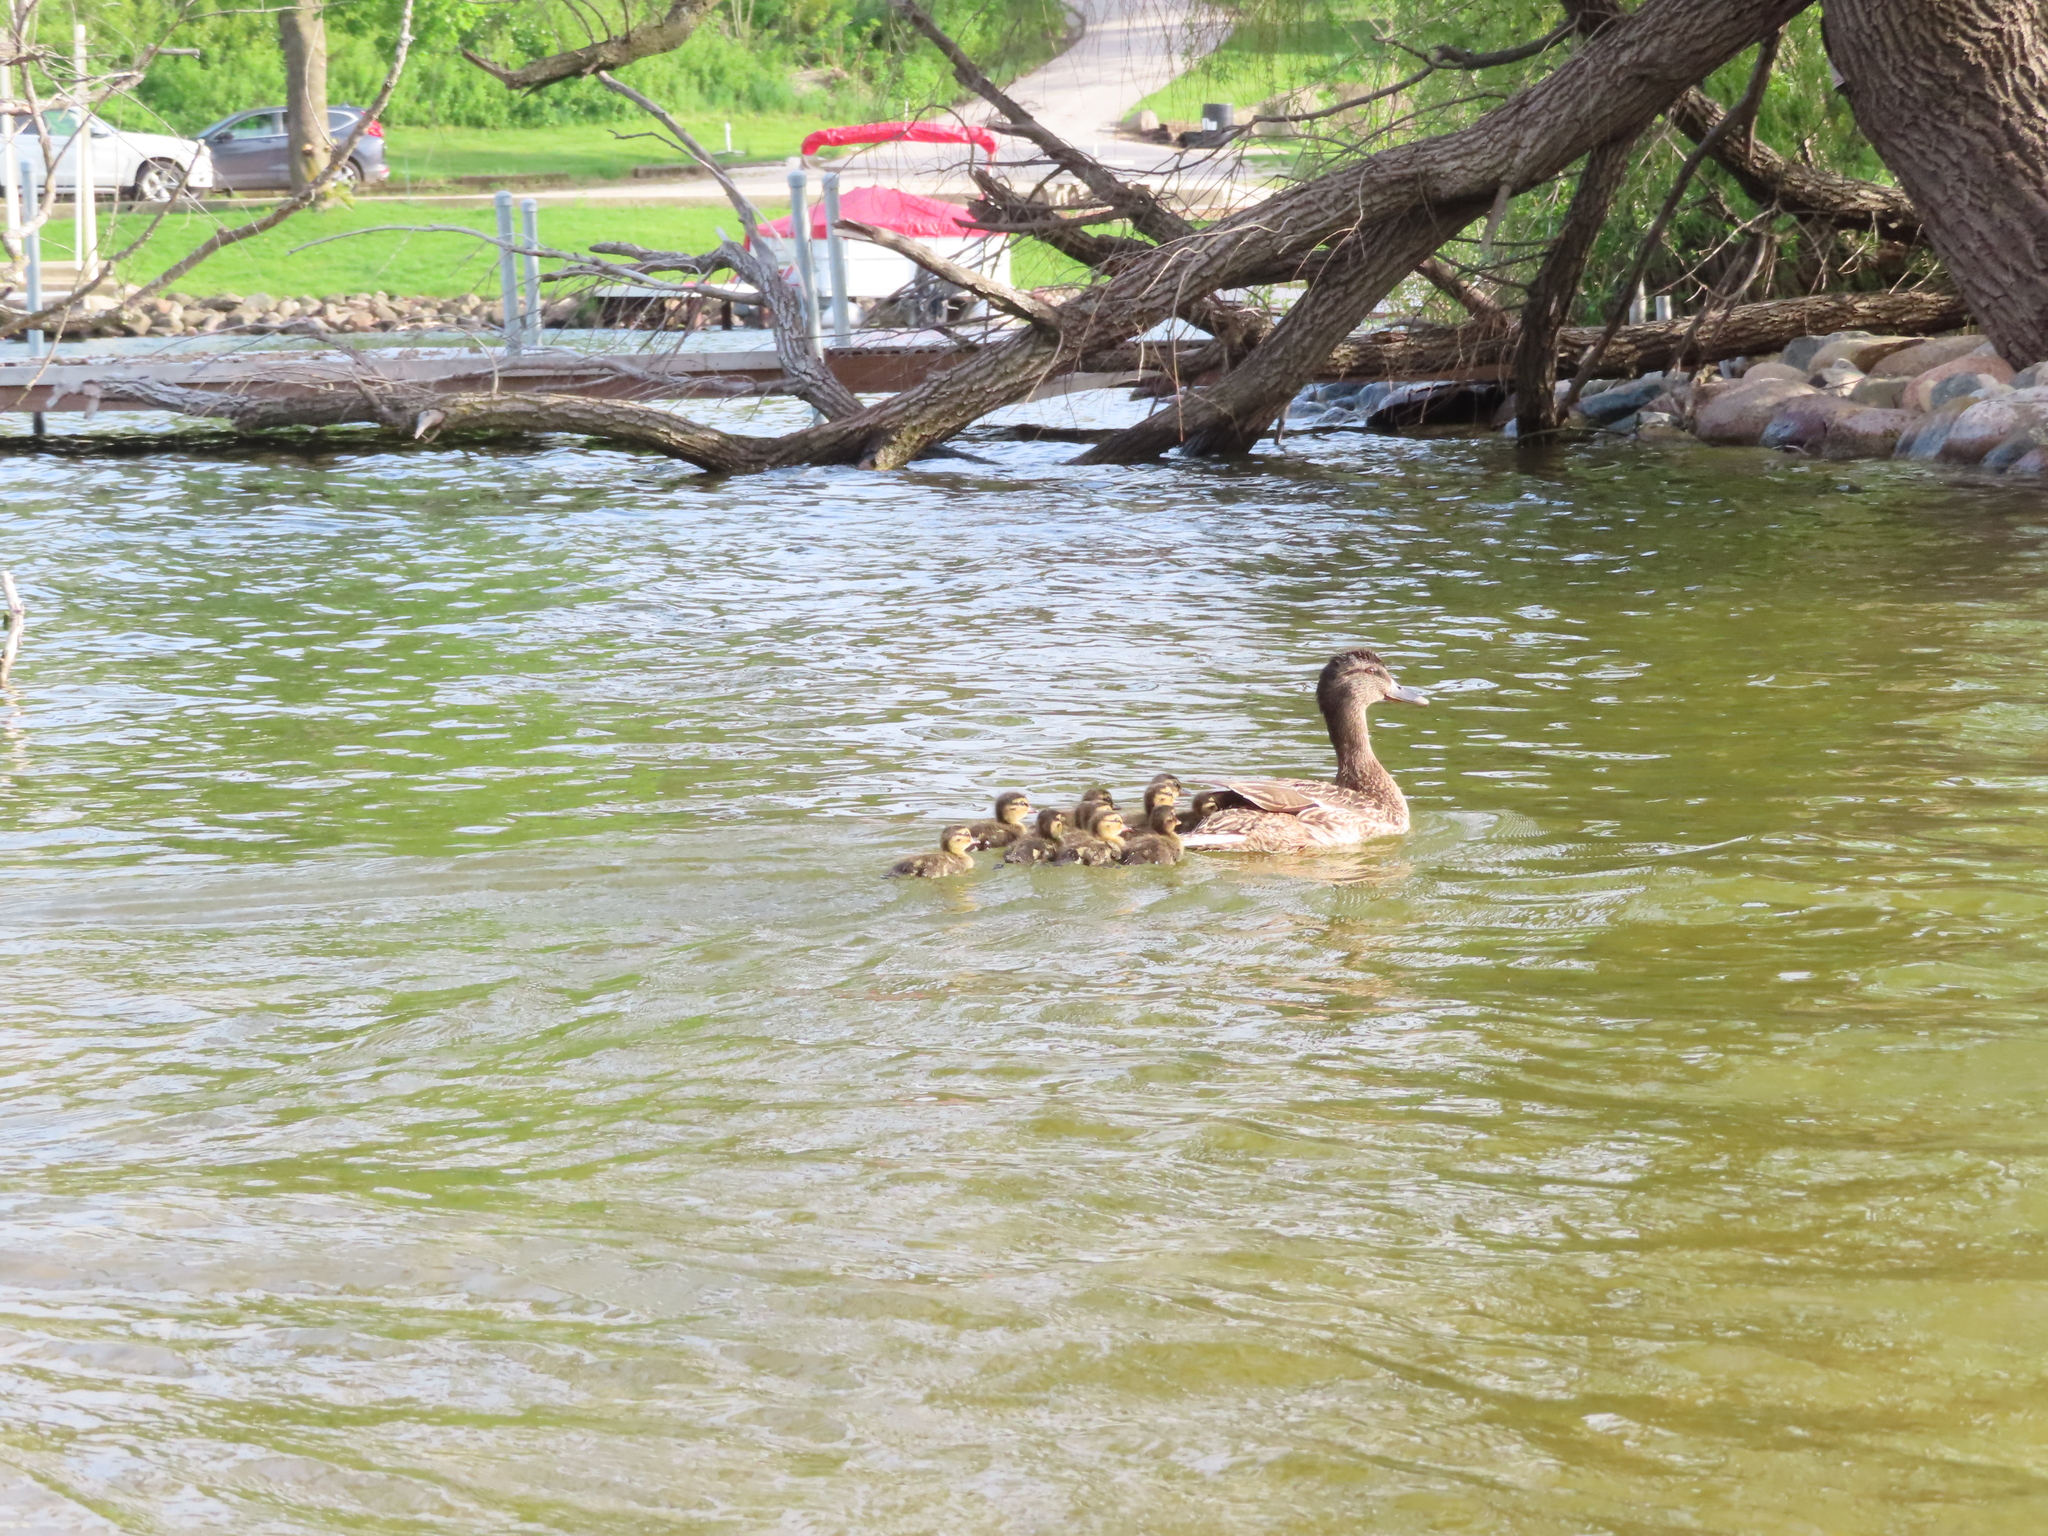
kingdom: Animalia
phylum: Chordata
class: Aves
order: Anseriformes
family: Anatidae
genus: Anas
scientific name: Anas platyrhynchos
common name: Mallard
